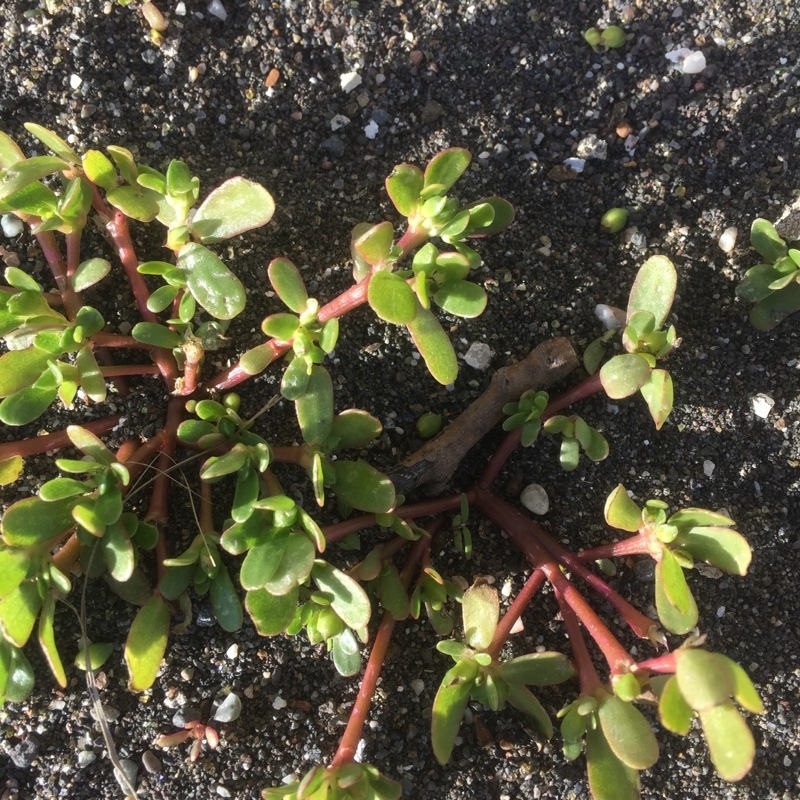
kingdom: Plantae
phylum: Tracheophyta
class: Magnoliopsida
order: Caryophyllales
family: Portulacaceae
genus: Portulaca
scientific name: Portulaca oleracea
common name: Common purslane
